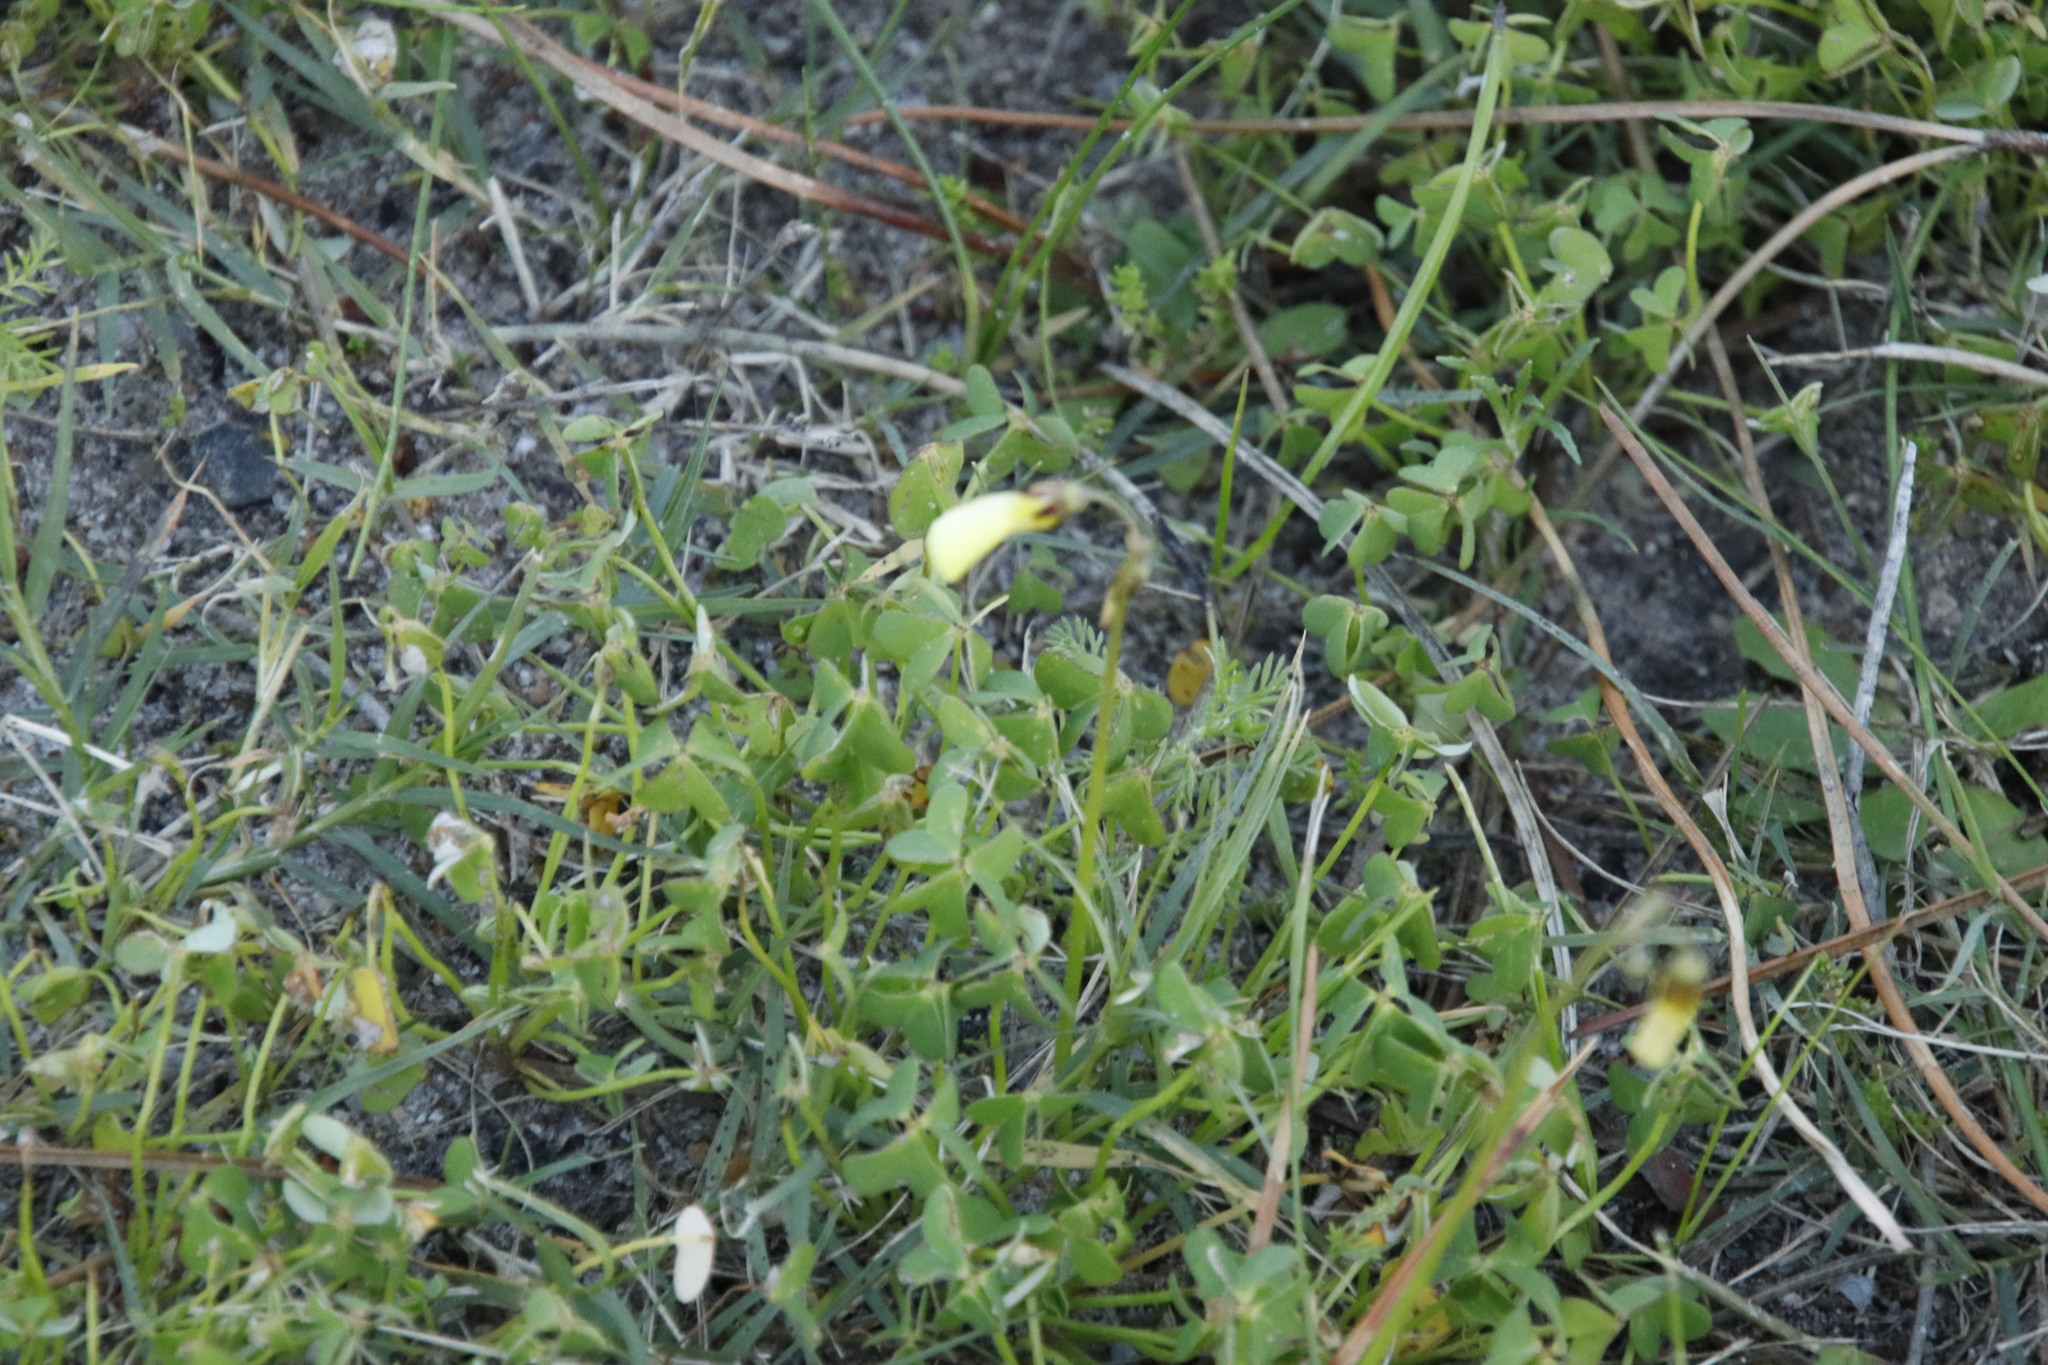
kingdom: Plantae
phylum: Tracheophyta
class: Magnoliopsida
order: Oxalidales
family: Oxalidaceae
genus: Oxalis
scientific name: Oxalis pes-caprae
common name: Bermuda-buttercup
